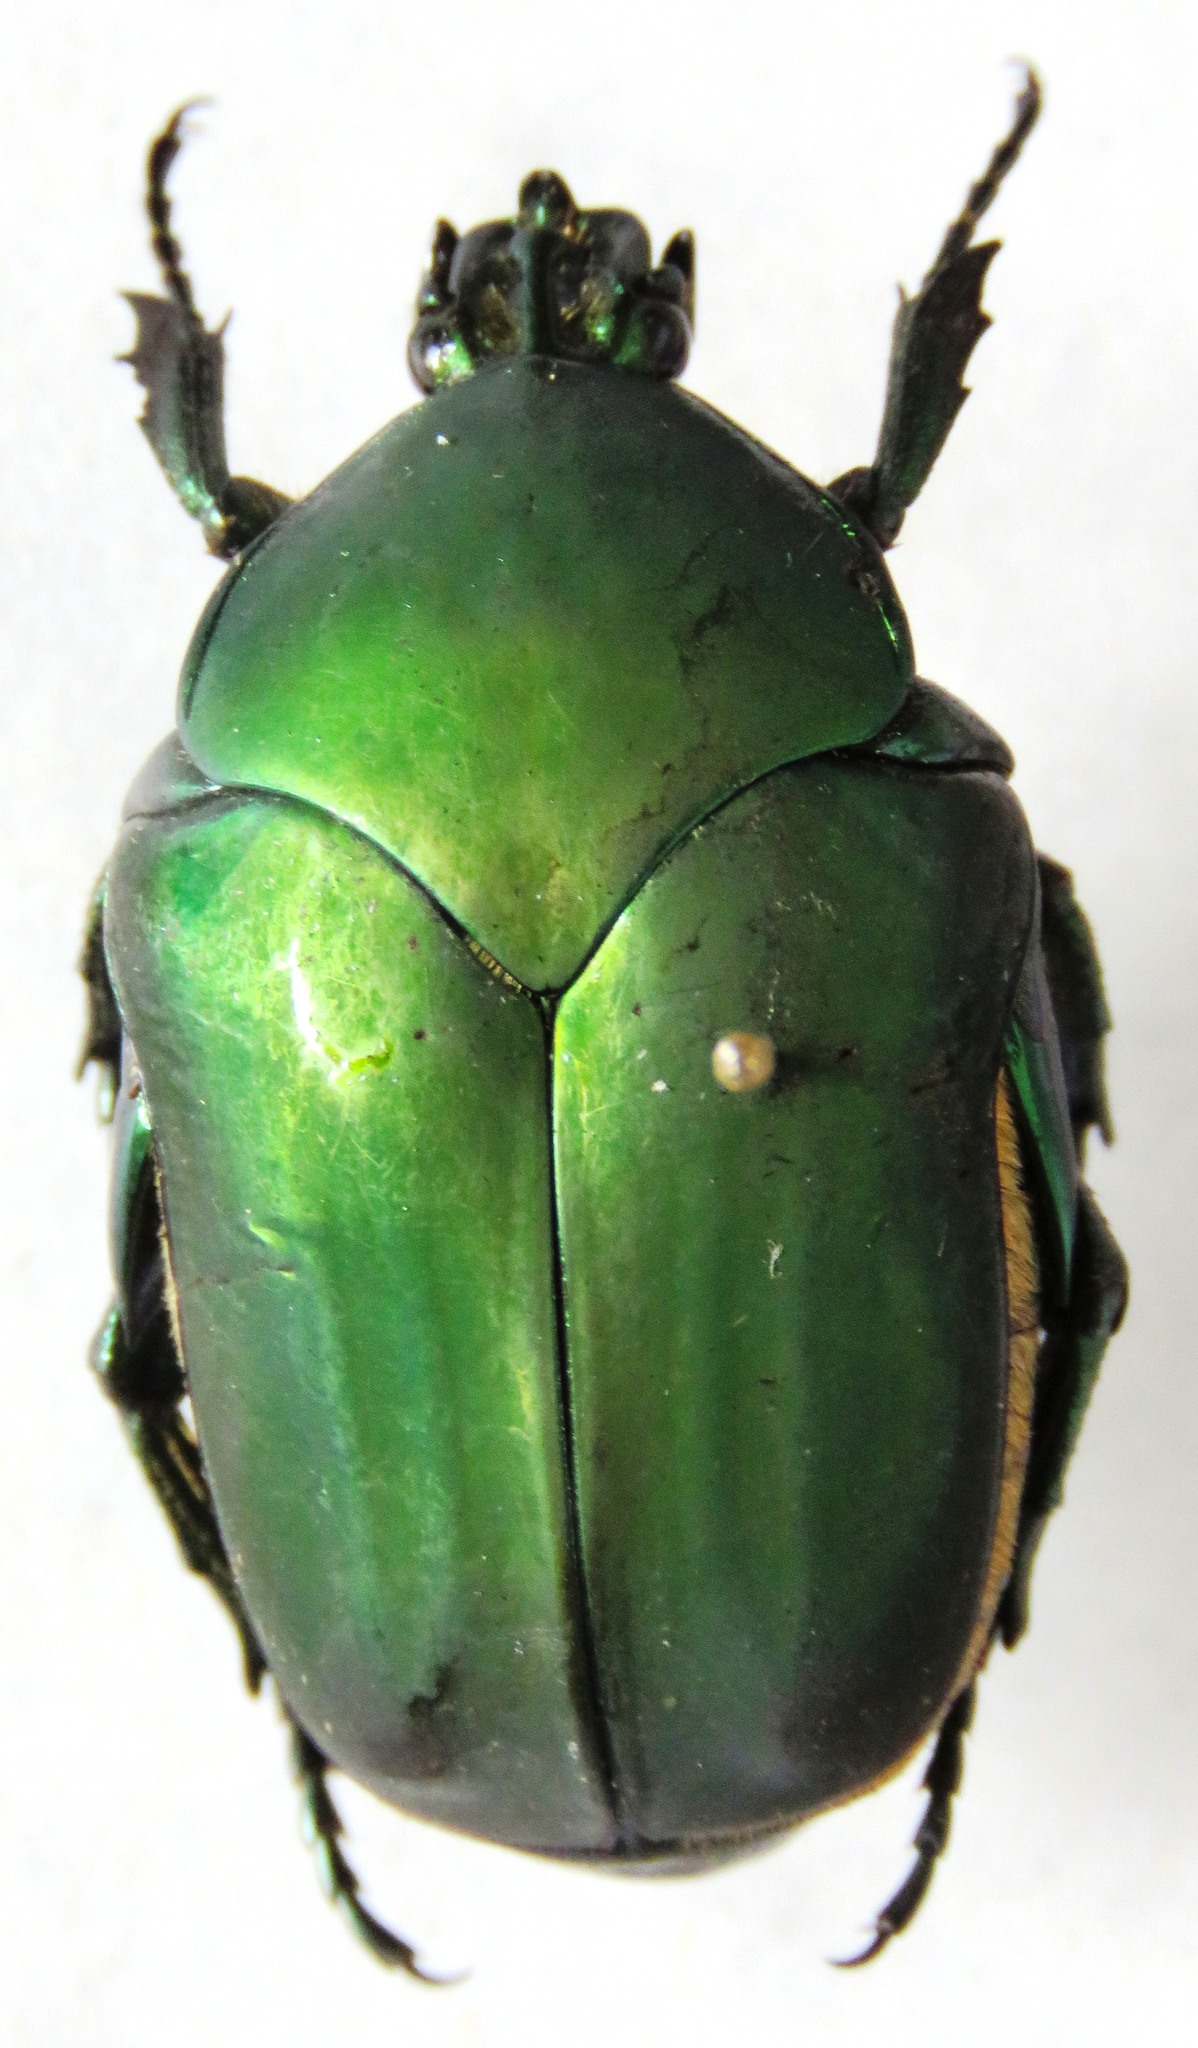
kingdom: Animalia
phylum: Arthropoda
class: Insecta
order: Coleoptera
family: Scarabaeidae
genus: Cotinis
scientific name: Cotinis mutabilis
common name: Figeater beetle
